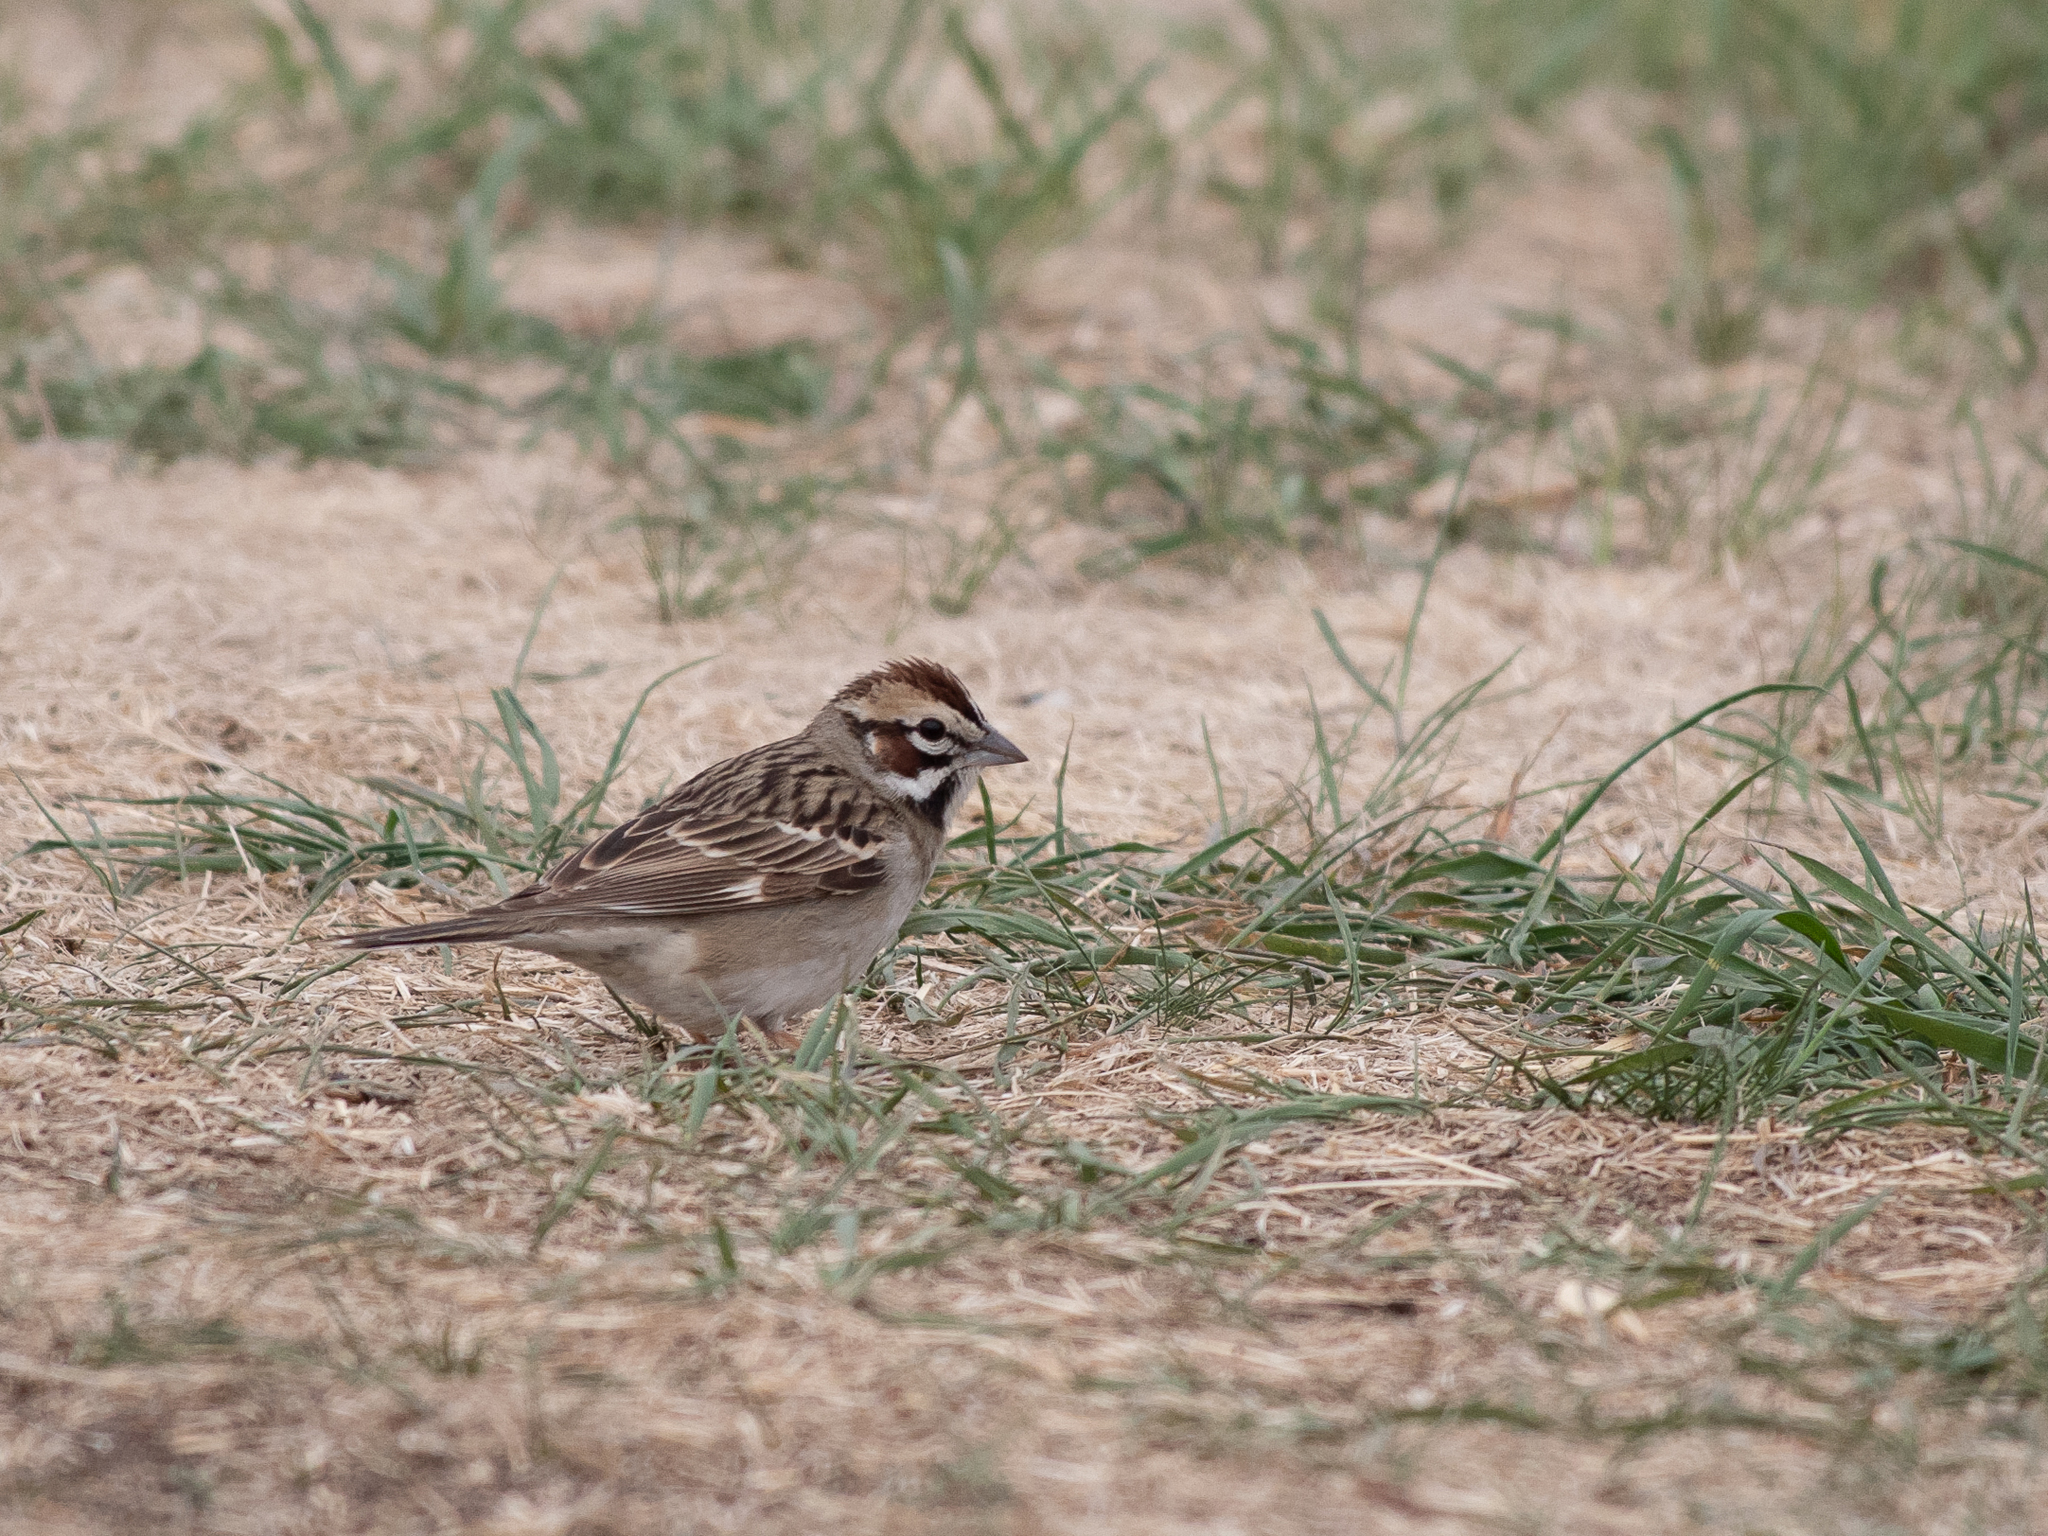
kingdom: Animalia
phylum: Chordata
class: Aves
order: Passeriformes
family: Passerellidae
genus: Chondestes
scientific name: Chondestes grammacus
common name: Lark sparrow
